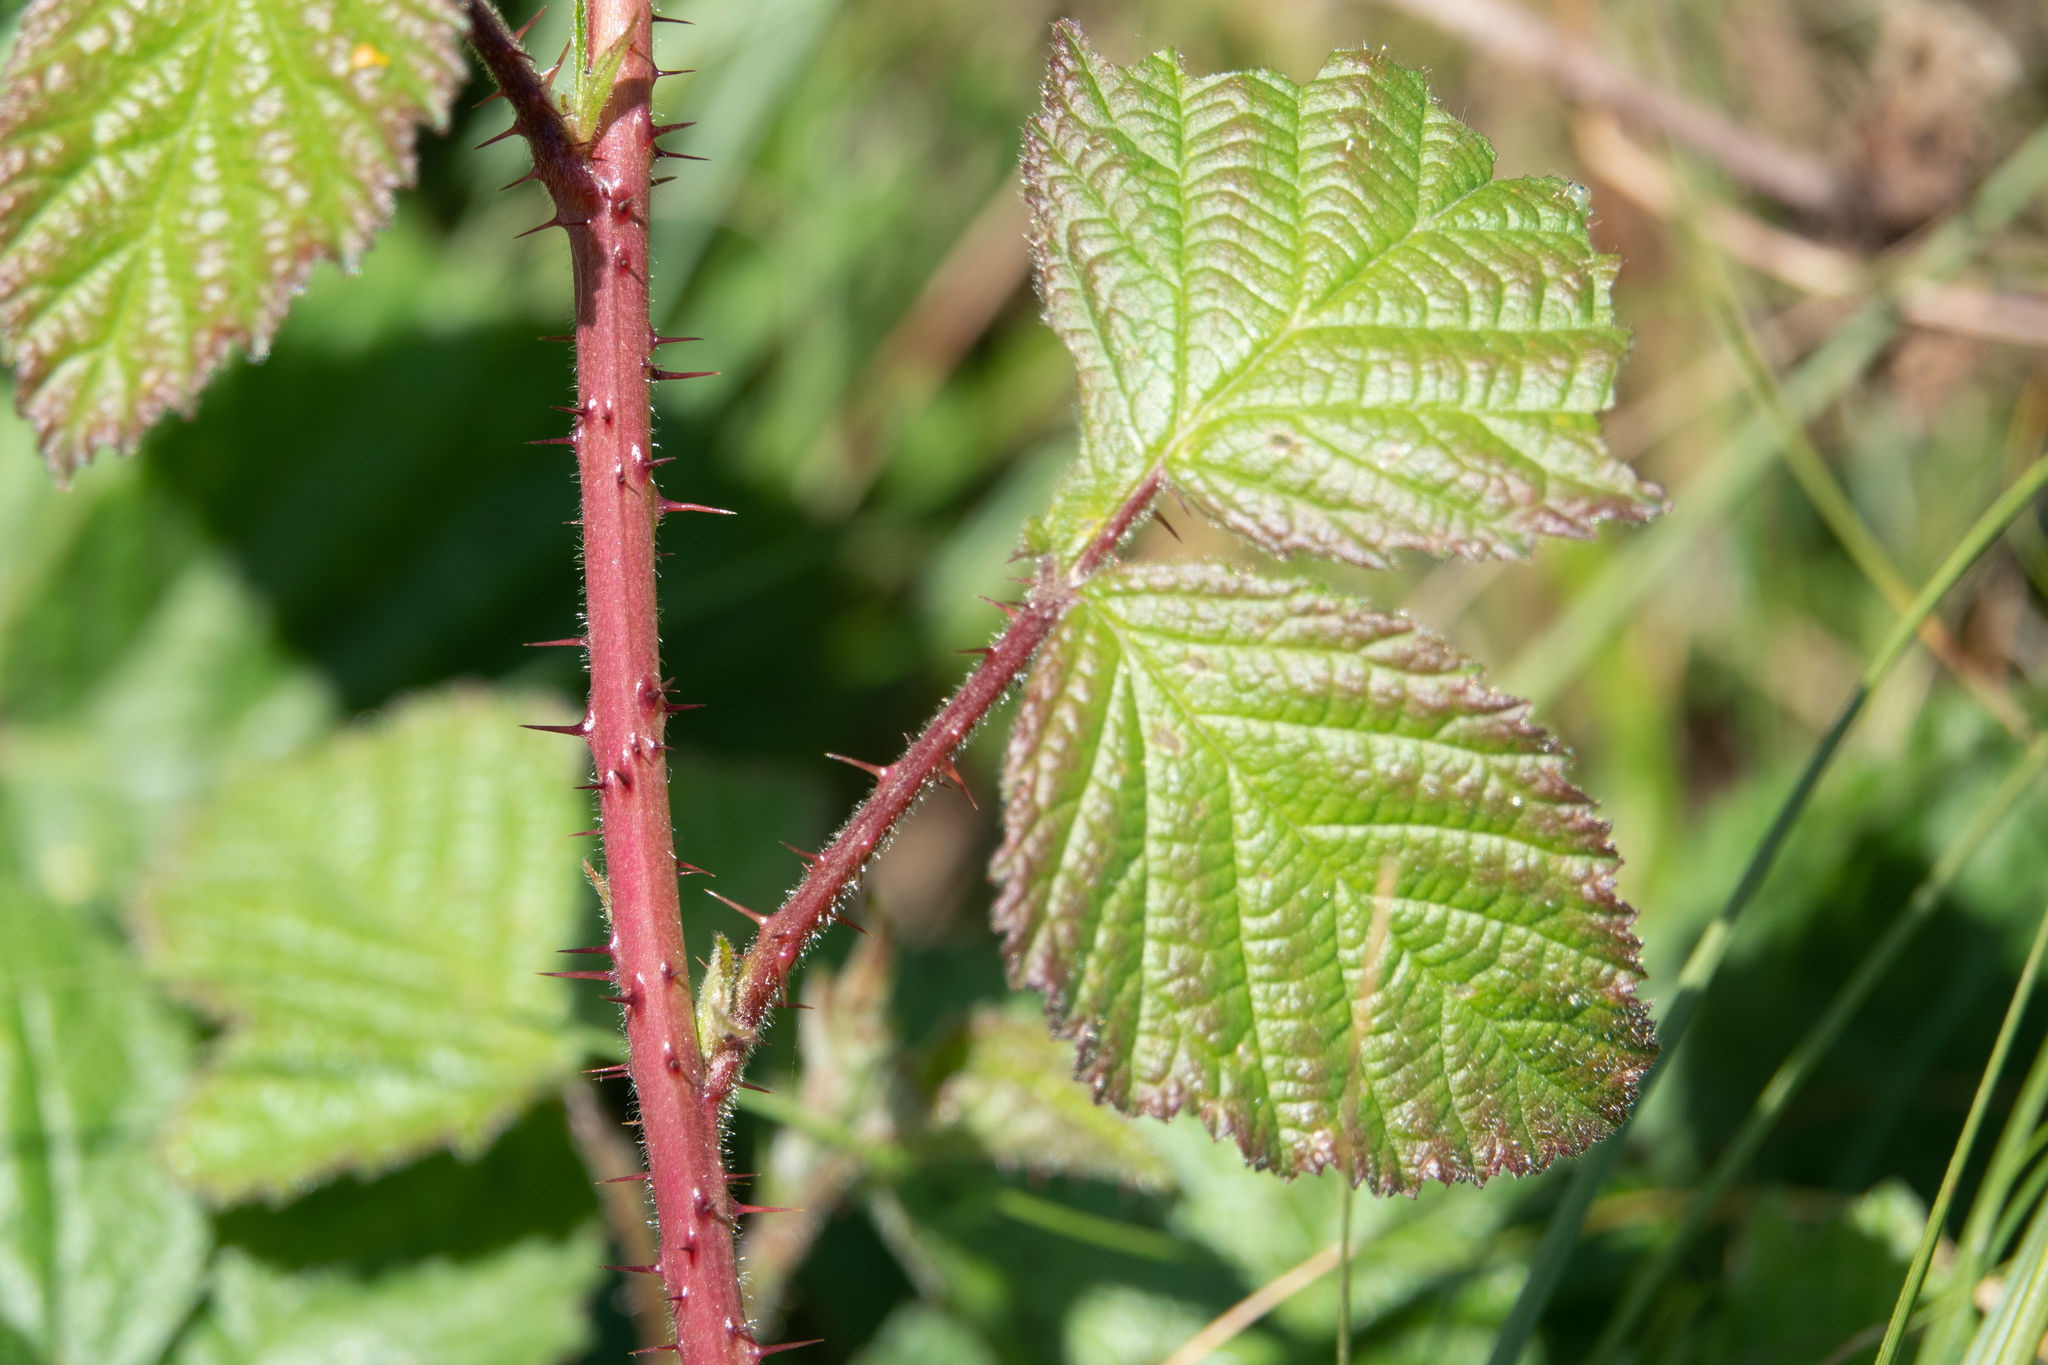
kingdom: Plantae
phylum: Tracheophyta
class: Magnoliopsida
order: Rosales
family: Rosaceae
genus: Rubus
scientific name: Rubus ursinus
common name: Pacific blackberry
